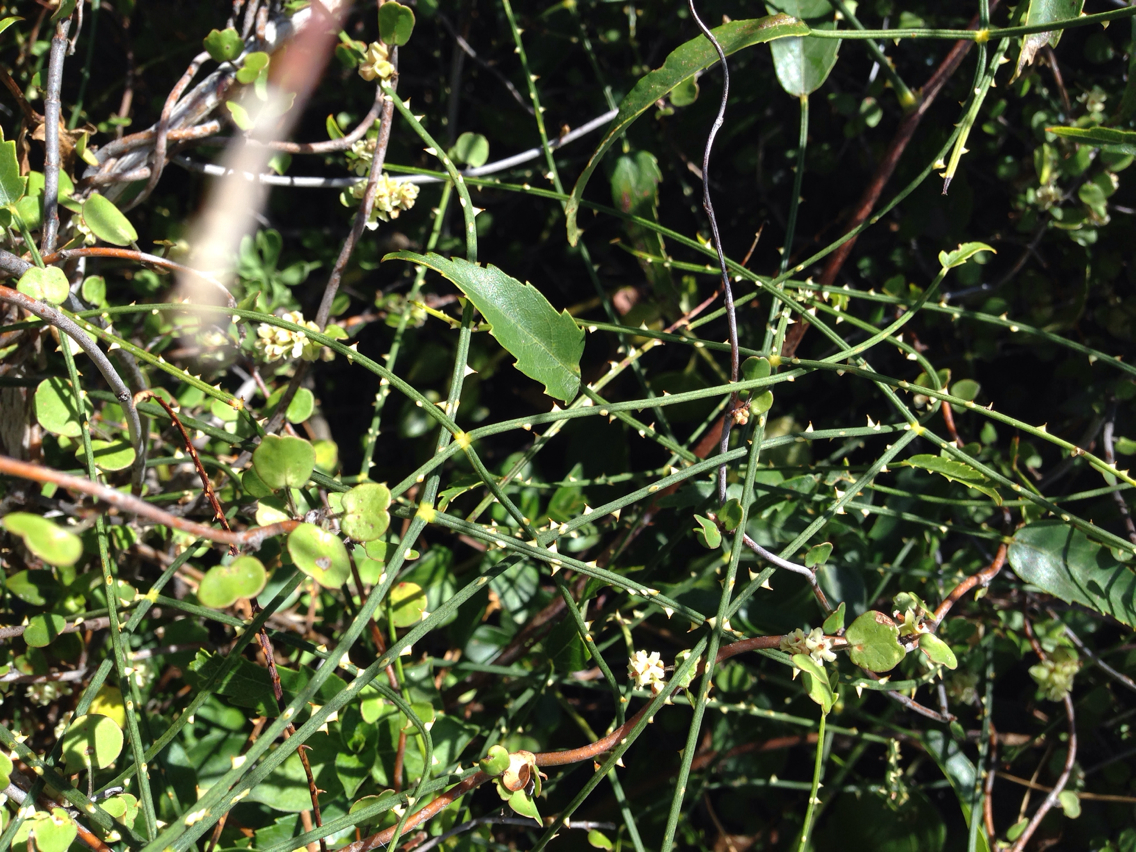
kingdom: Plantae
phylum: Tracheophyta
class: Magnoliopsida
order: Rosales
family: Rosaceae
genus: Rubus
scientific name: Rubus squarrosus
